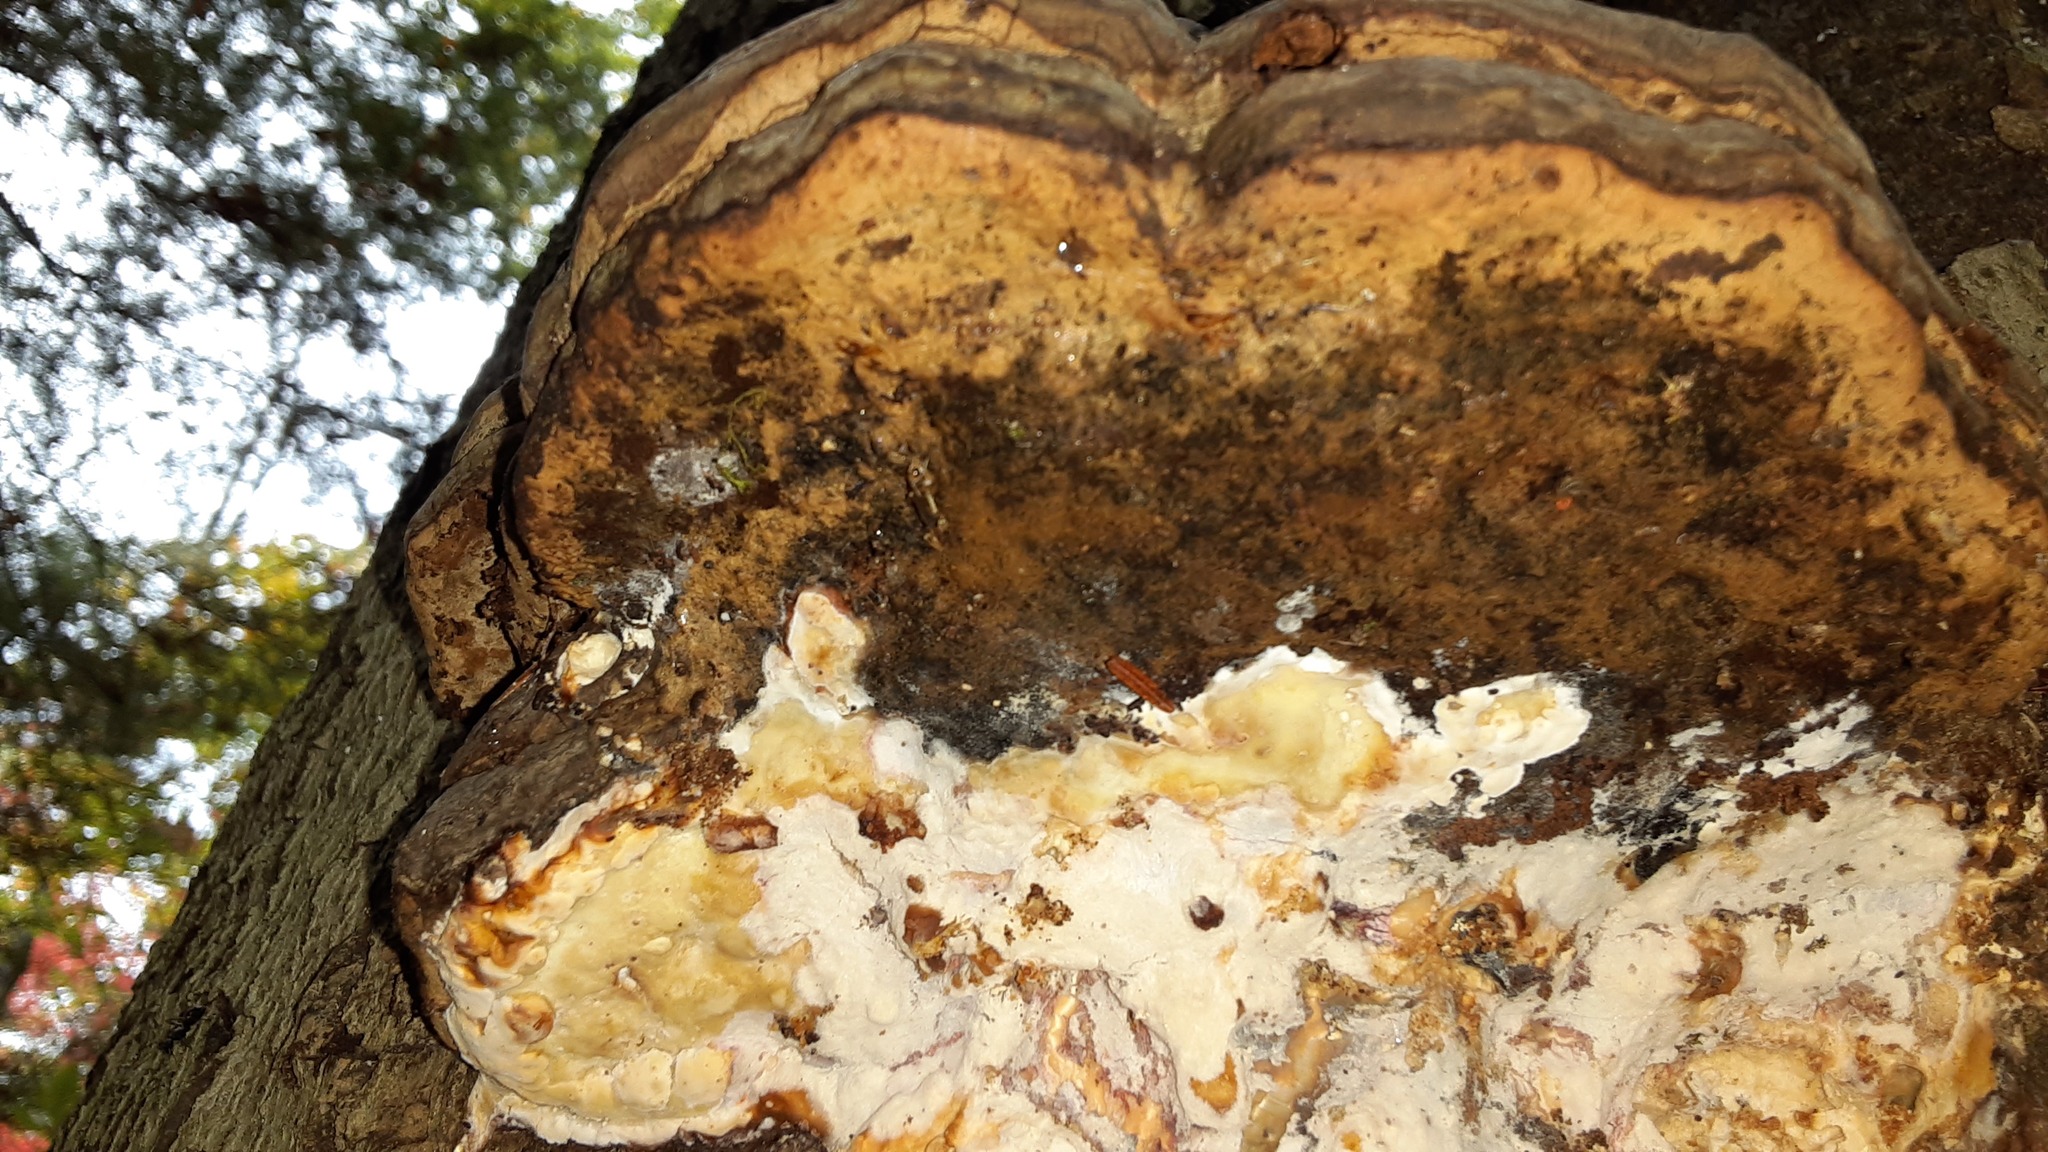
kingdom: Fungi
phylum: Basidiomycota
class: Agaricomycetes
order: Polyporales
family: Polyporaceae
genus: Fomes
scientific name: Fomes fomentarius
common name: Hoof fungus
